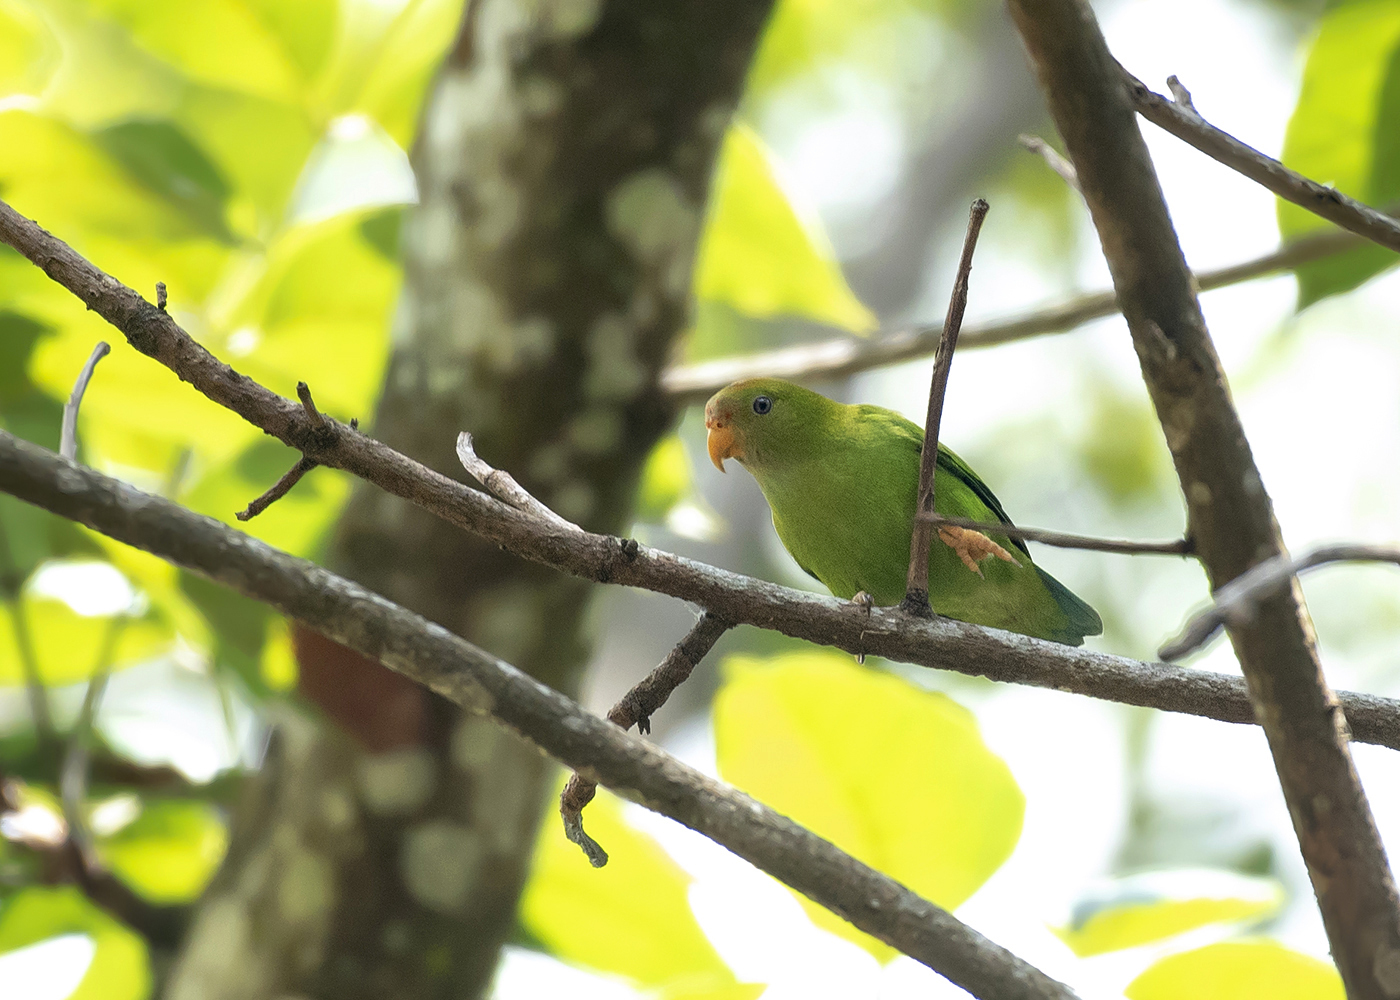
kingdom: Animalia
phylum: Chordata
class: Aves
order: Psittaciformes
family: Psittacidae
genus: Loriculus
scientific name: Loriculus beryllinus
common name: Sri lanka hanging parrot
